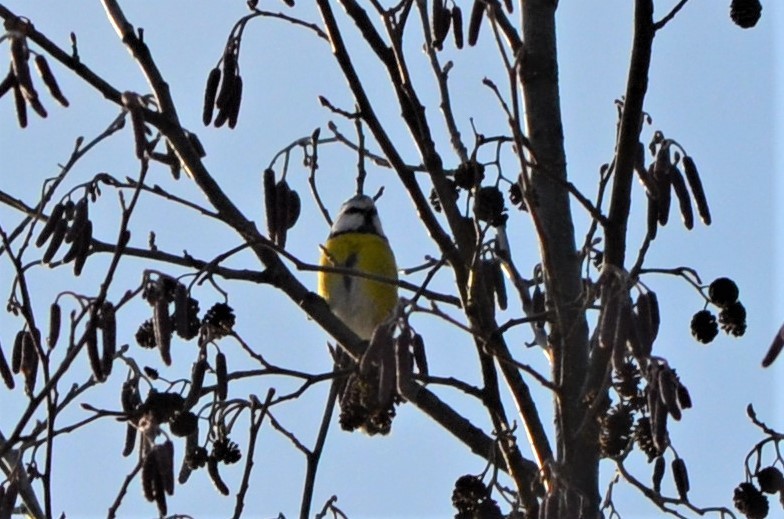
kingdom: Animalia
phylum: Chordata
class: Aves
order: Passeriformes
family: Paridae
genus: Cyanistes
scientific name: Cyanistes caeruleus
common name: Eurasian blue tit
